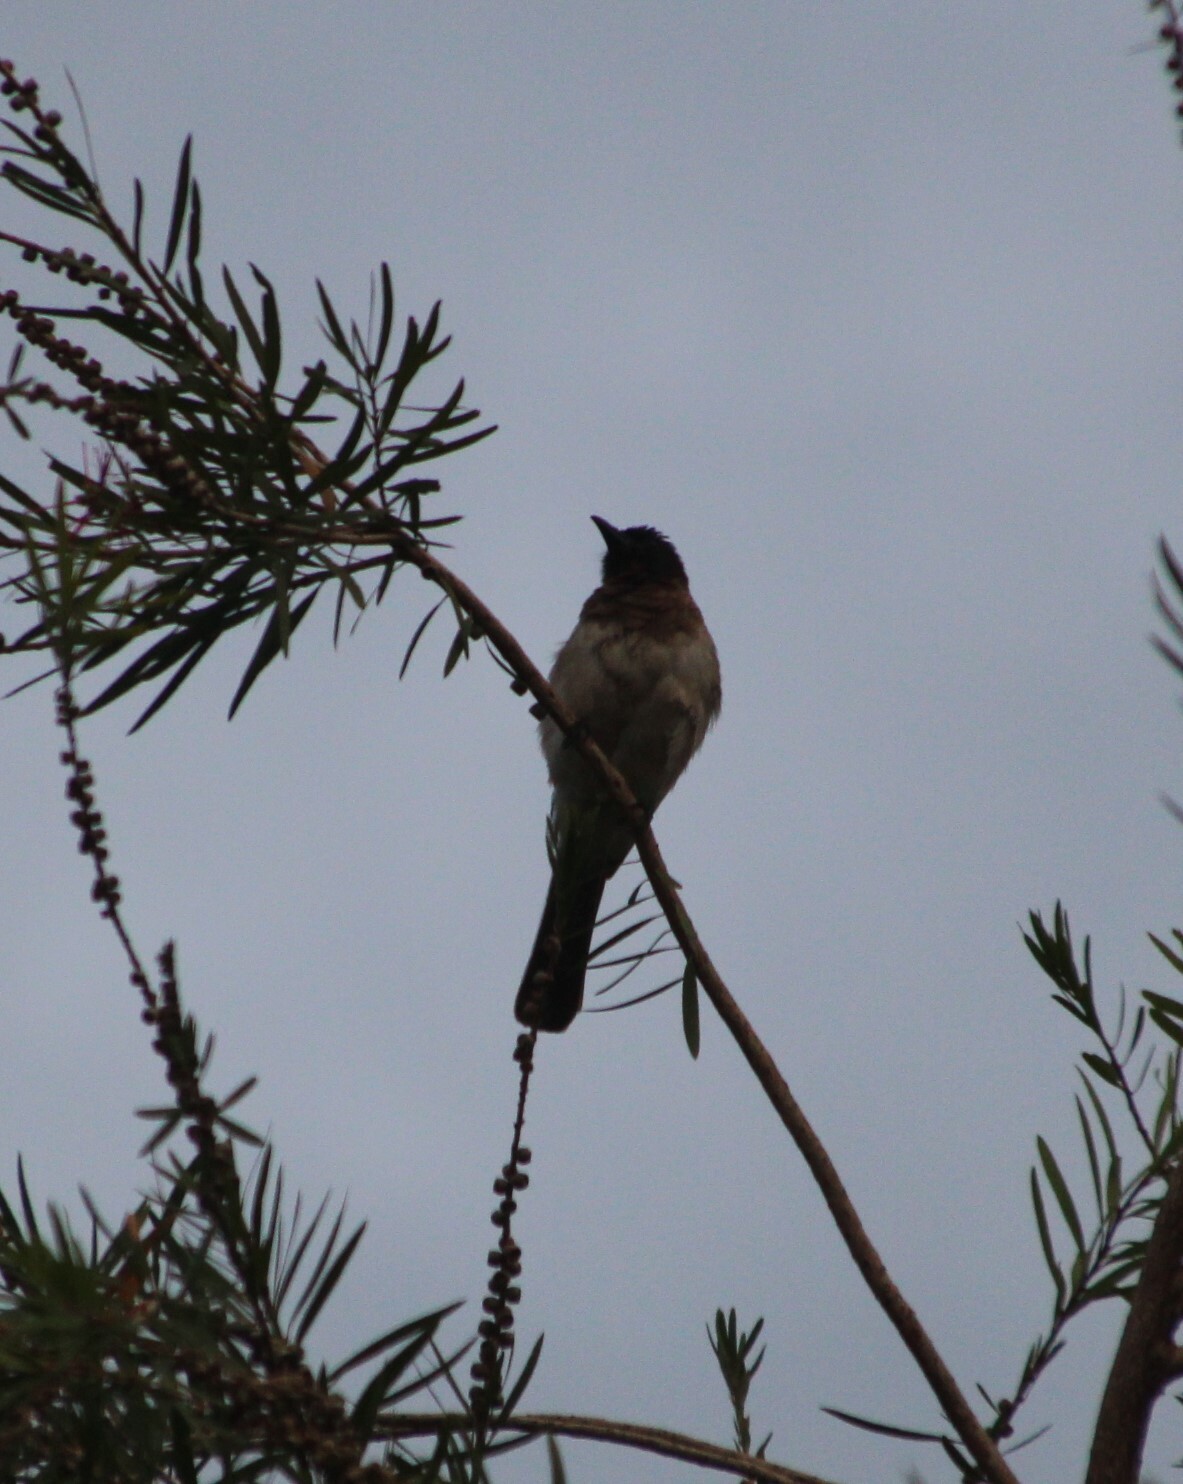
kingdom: Animalia
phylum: Chordata
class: Aves
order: Passeriformes
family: Pycnonotidae
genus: Pycnonotus
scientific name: Pycnonotus barbatus
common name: Common bulbul
